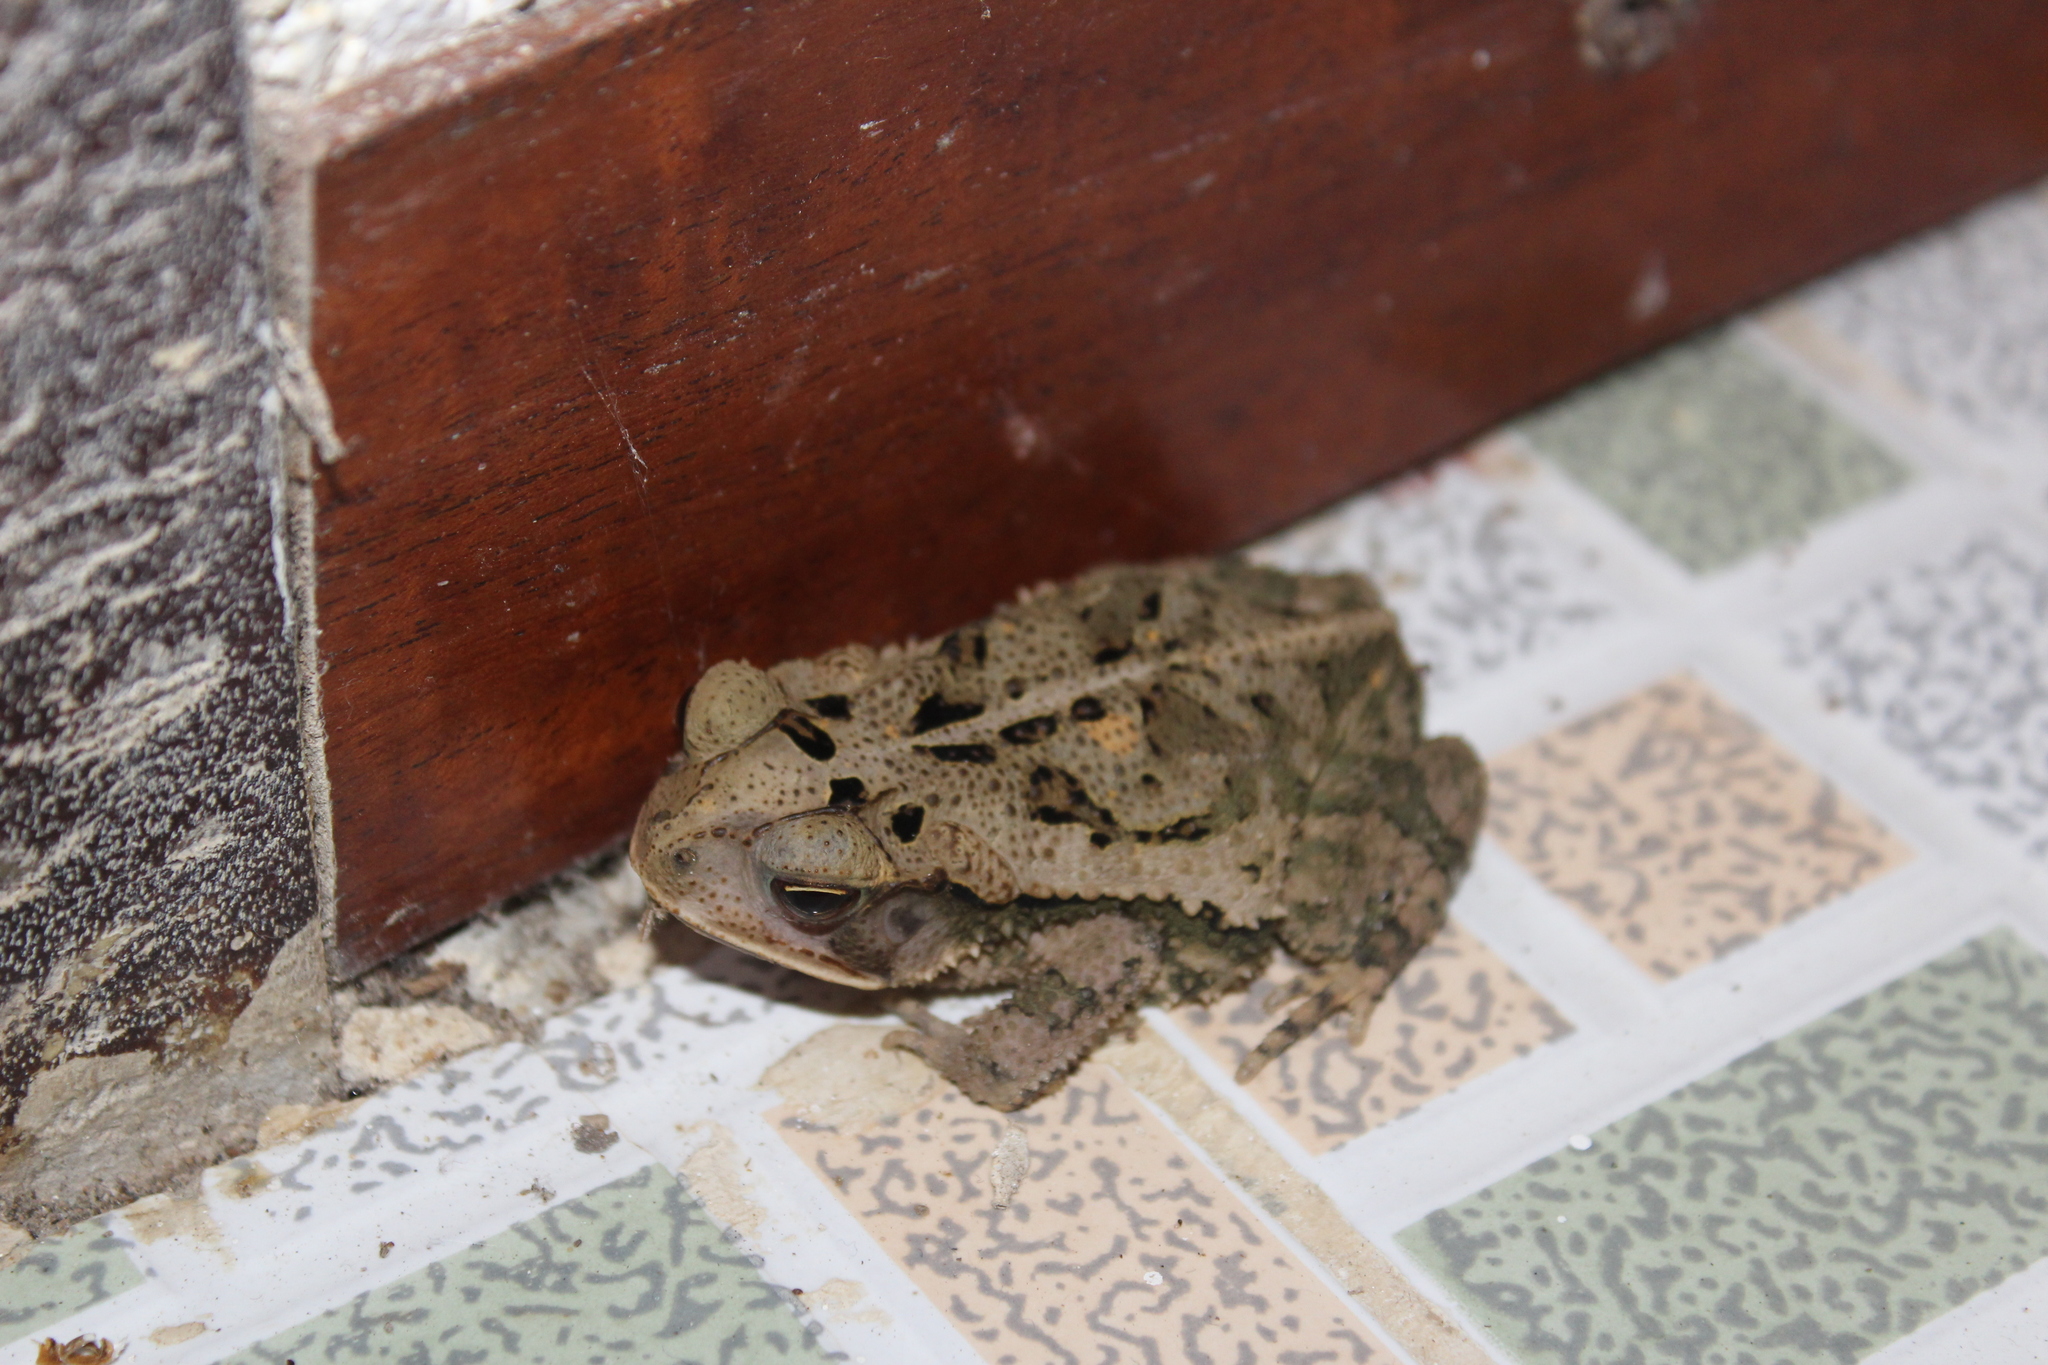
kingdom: Animalia
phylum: Chordata
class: Amphibia
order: Anura
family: Bufonidae
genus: Incilius
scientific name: Incilius valliceps
